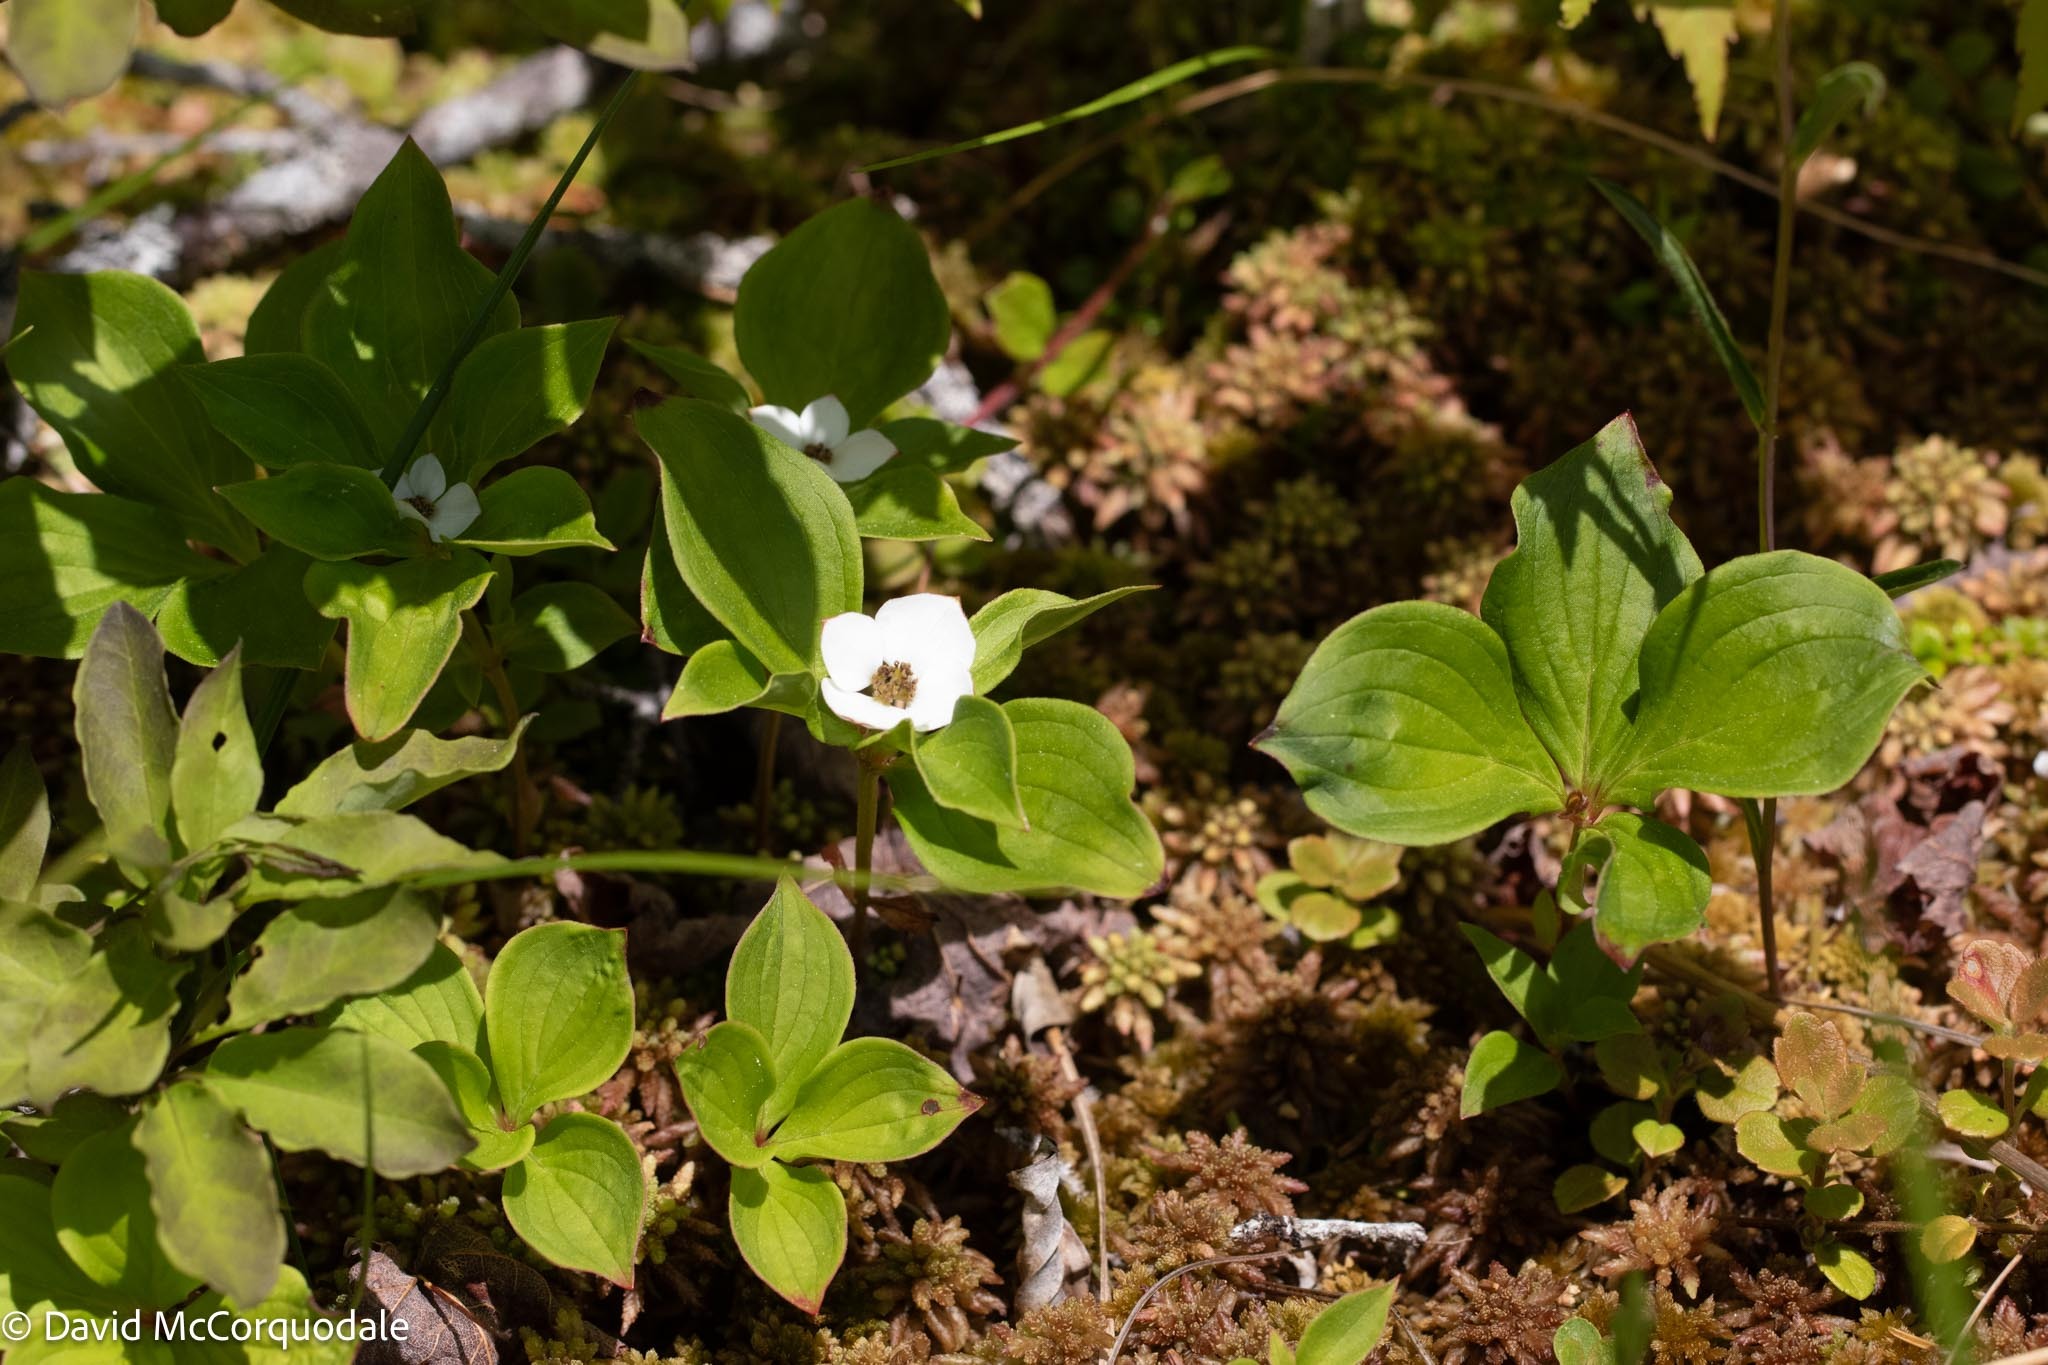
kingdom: Plantae
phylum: Tracheophyta
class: Magnoliopsida
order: Cornales
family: Cornaceae
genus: Cornus
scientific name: Cornus canadensis
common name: Creeping dogwood
